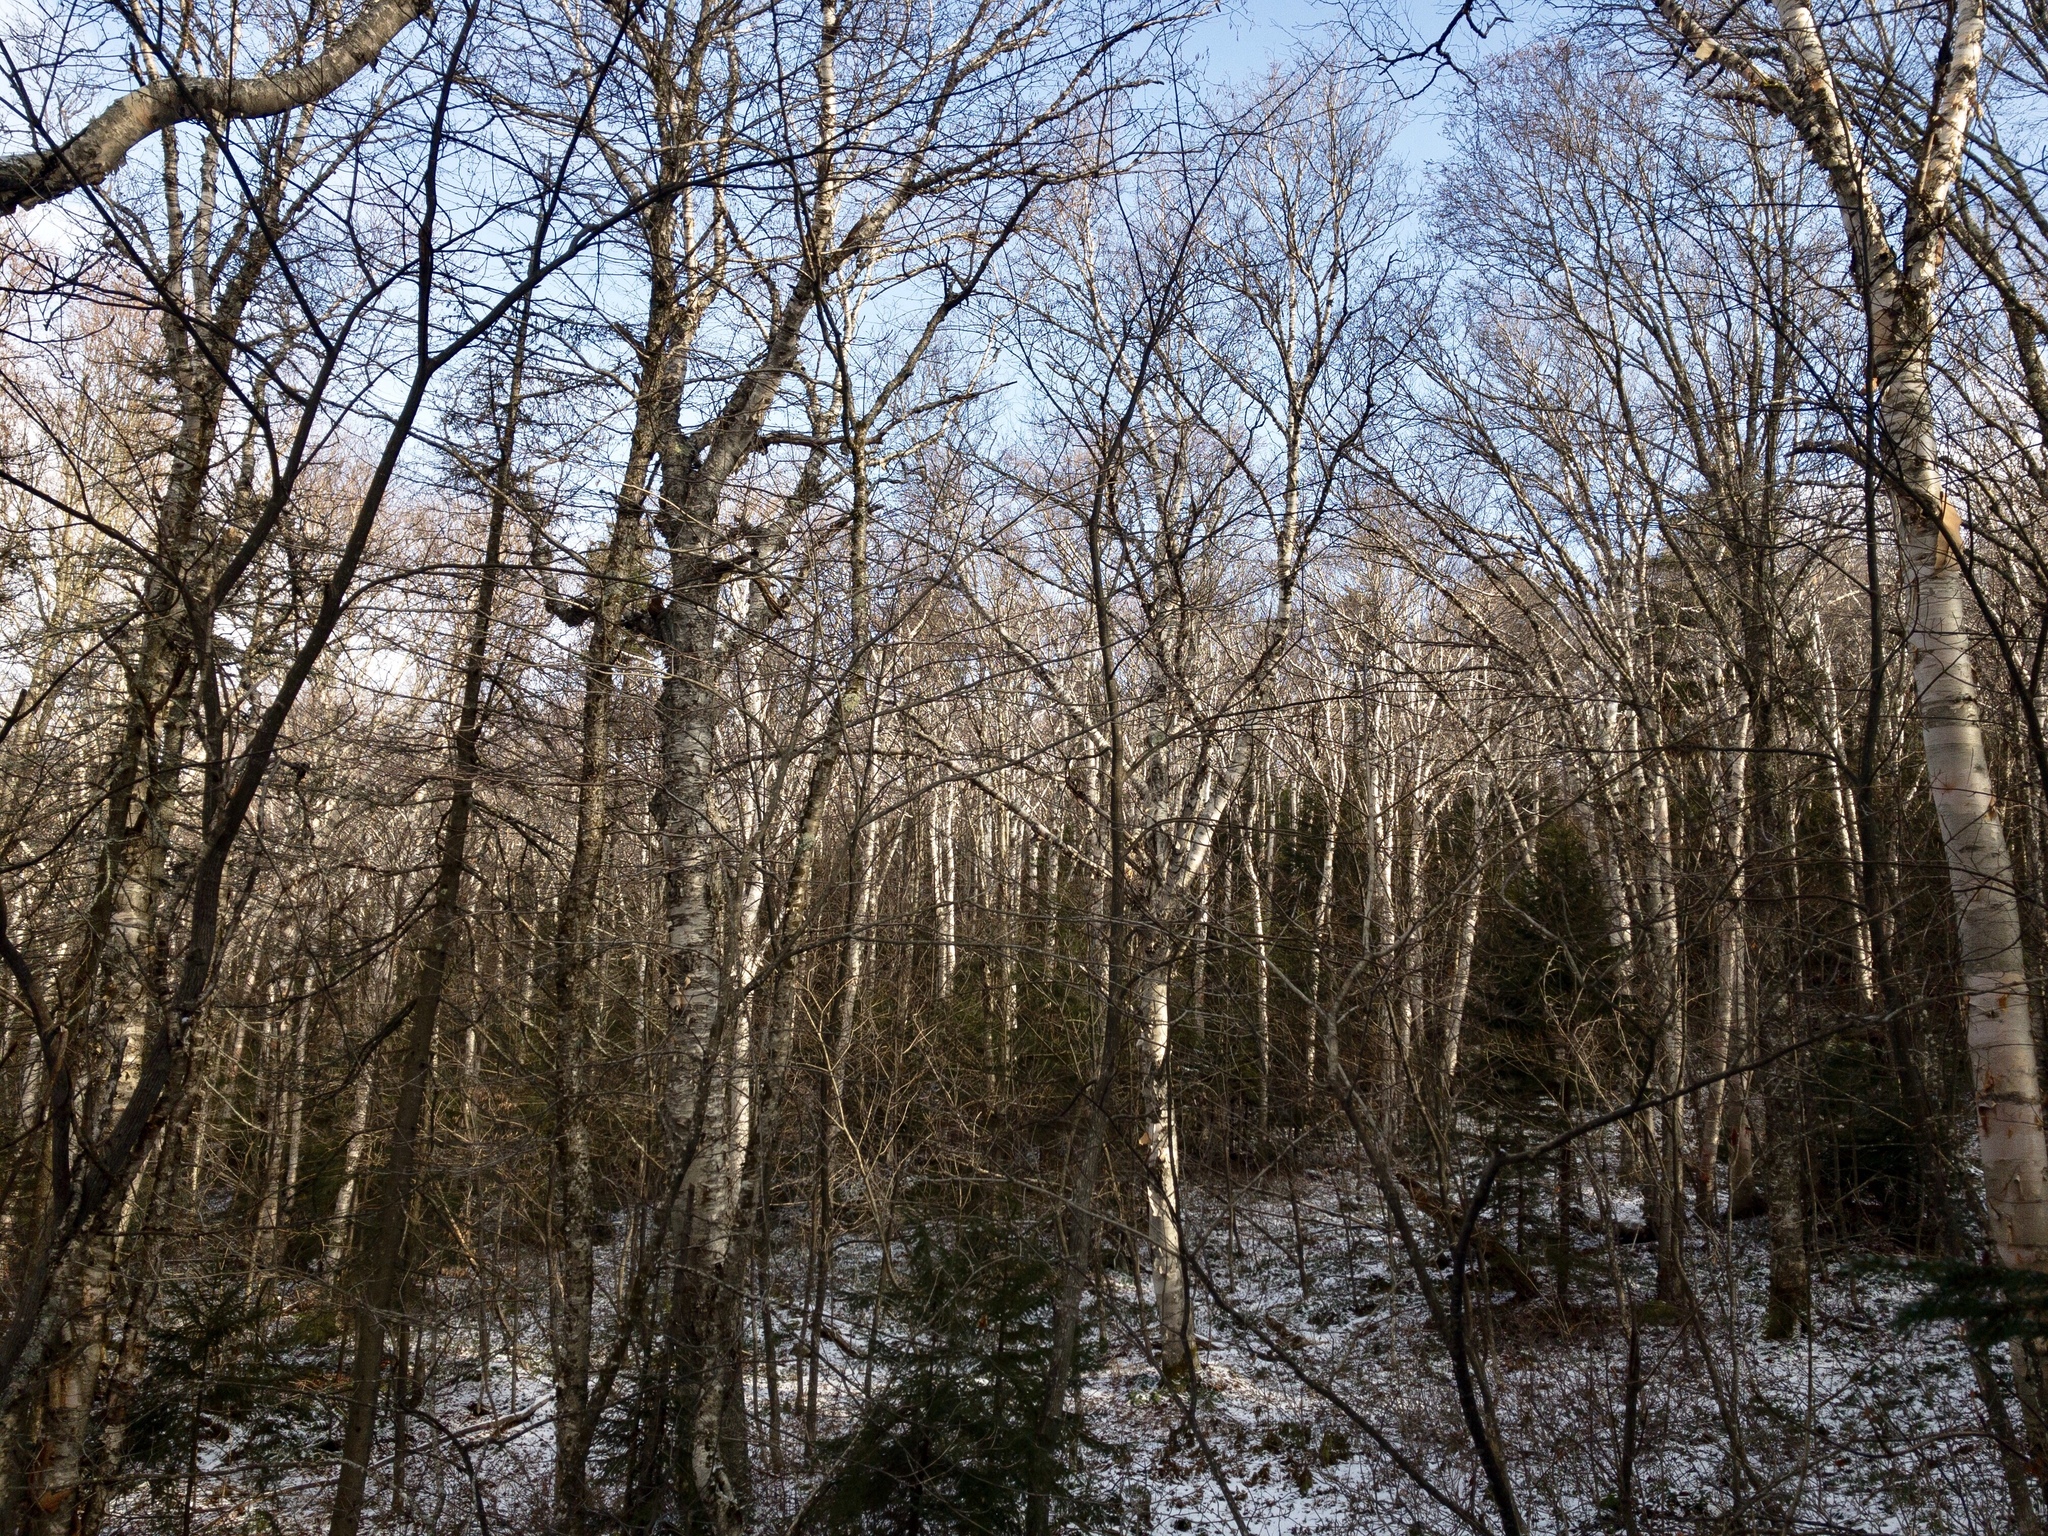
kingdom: Plantae
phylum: Tracheophyta
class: Magnoliopsida
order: Fagales
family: Betulaceae
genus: Betula
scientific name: Betula cordifolia
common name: Mountain white birch
